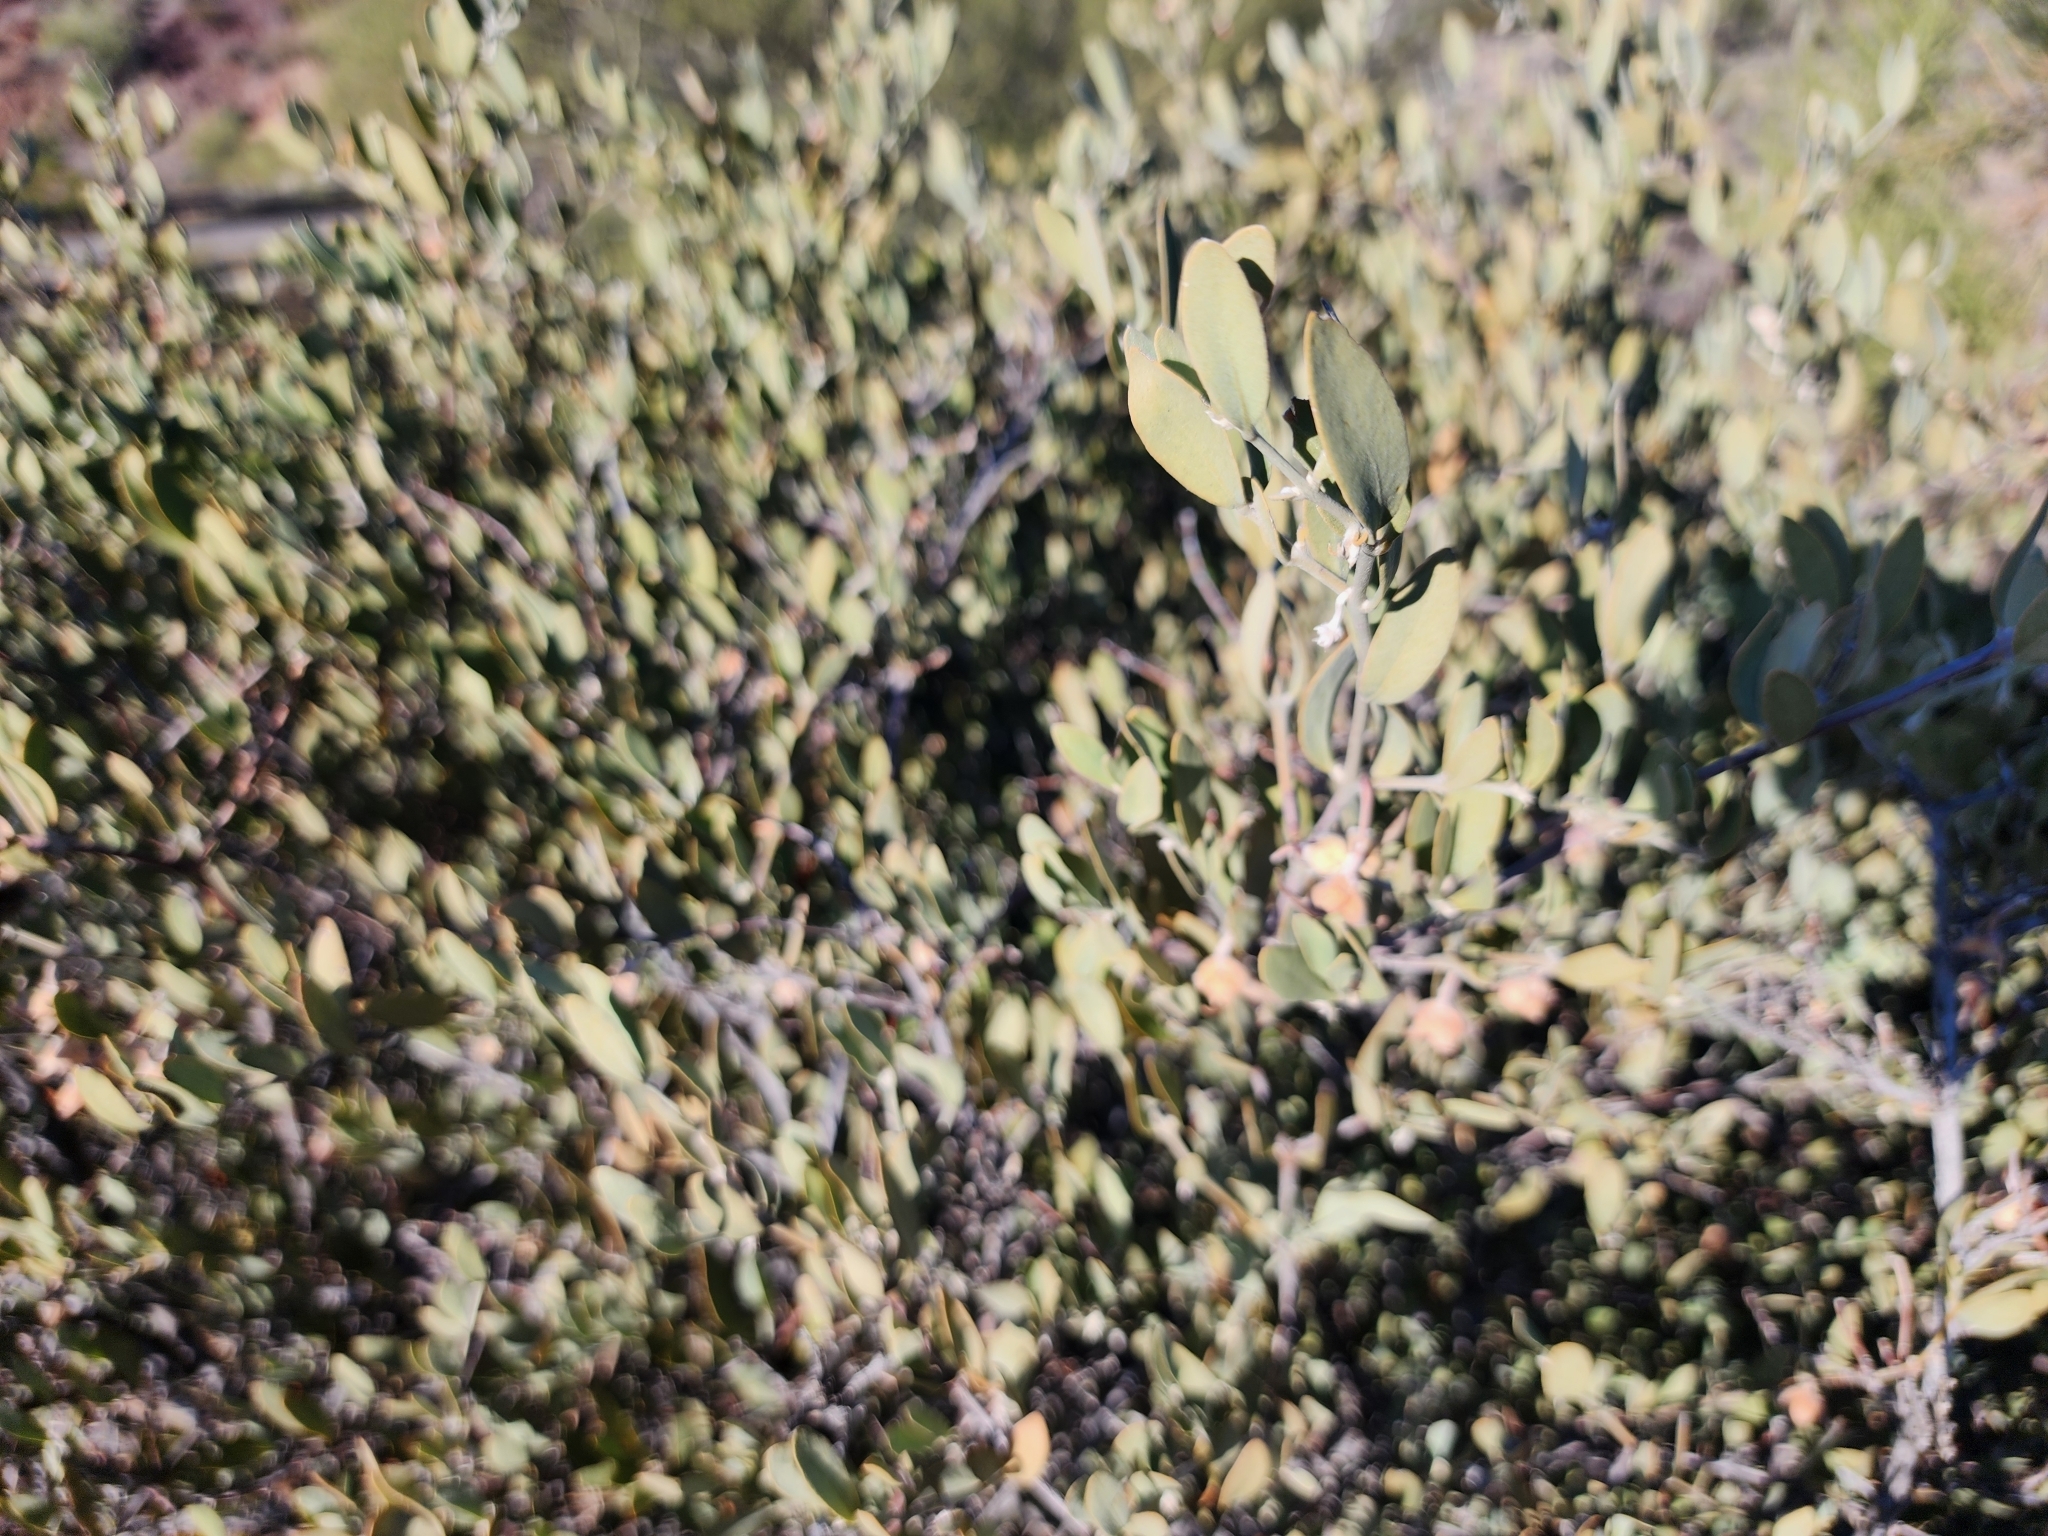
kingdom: Plantae
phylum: Tracheophyta
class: Magnoliopsida
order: Caryophyllales
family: Simmondsiaceae
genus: Simmondsia
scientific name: Simmondsia chinensis
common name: Jojoba
